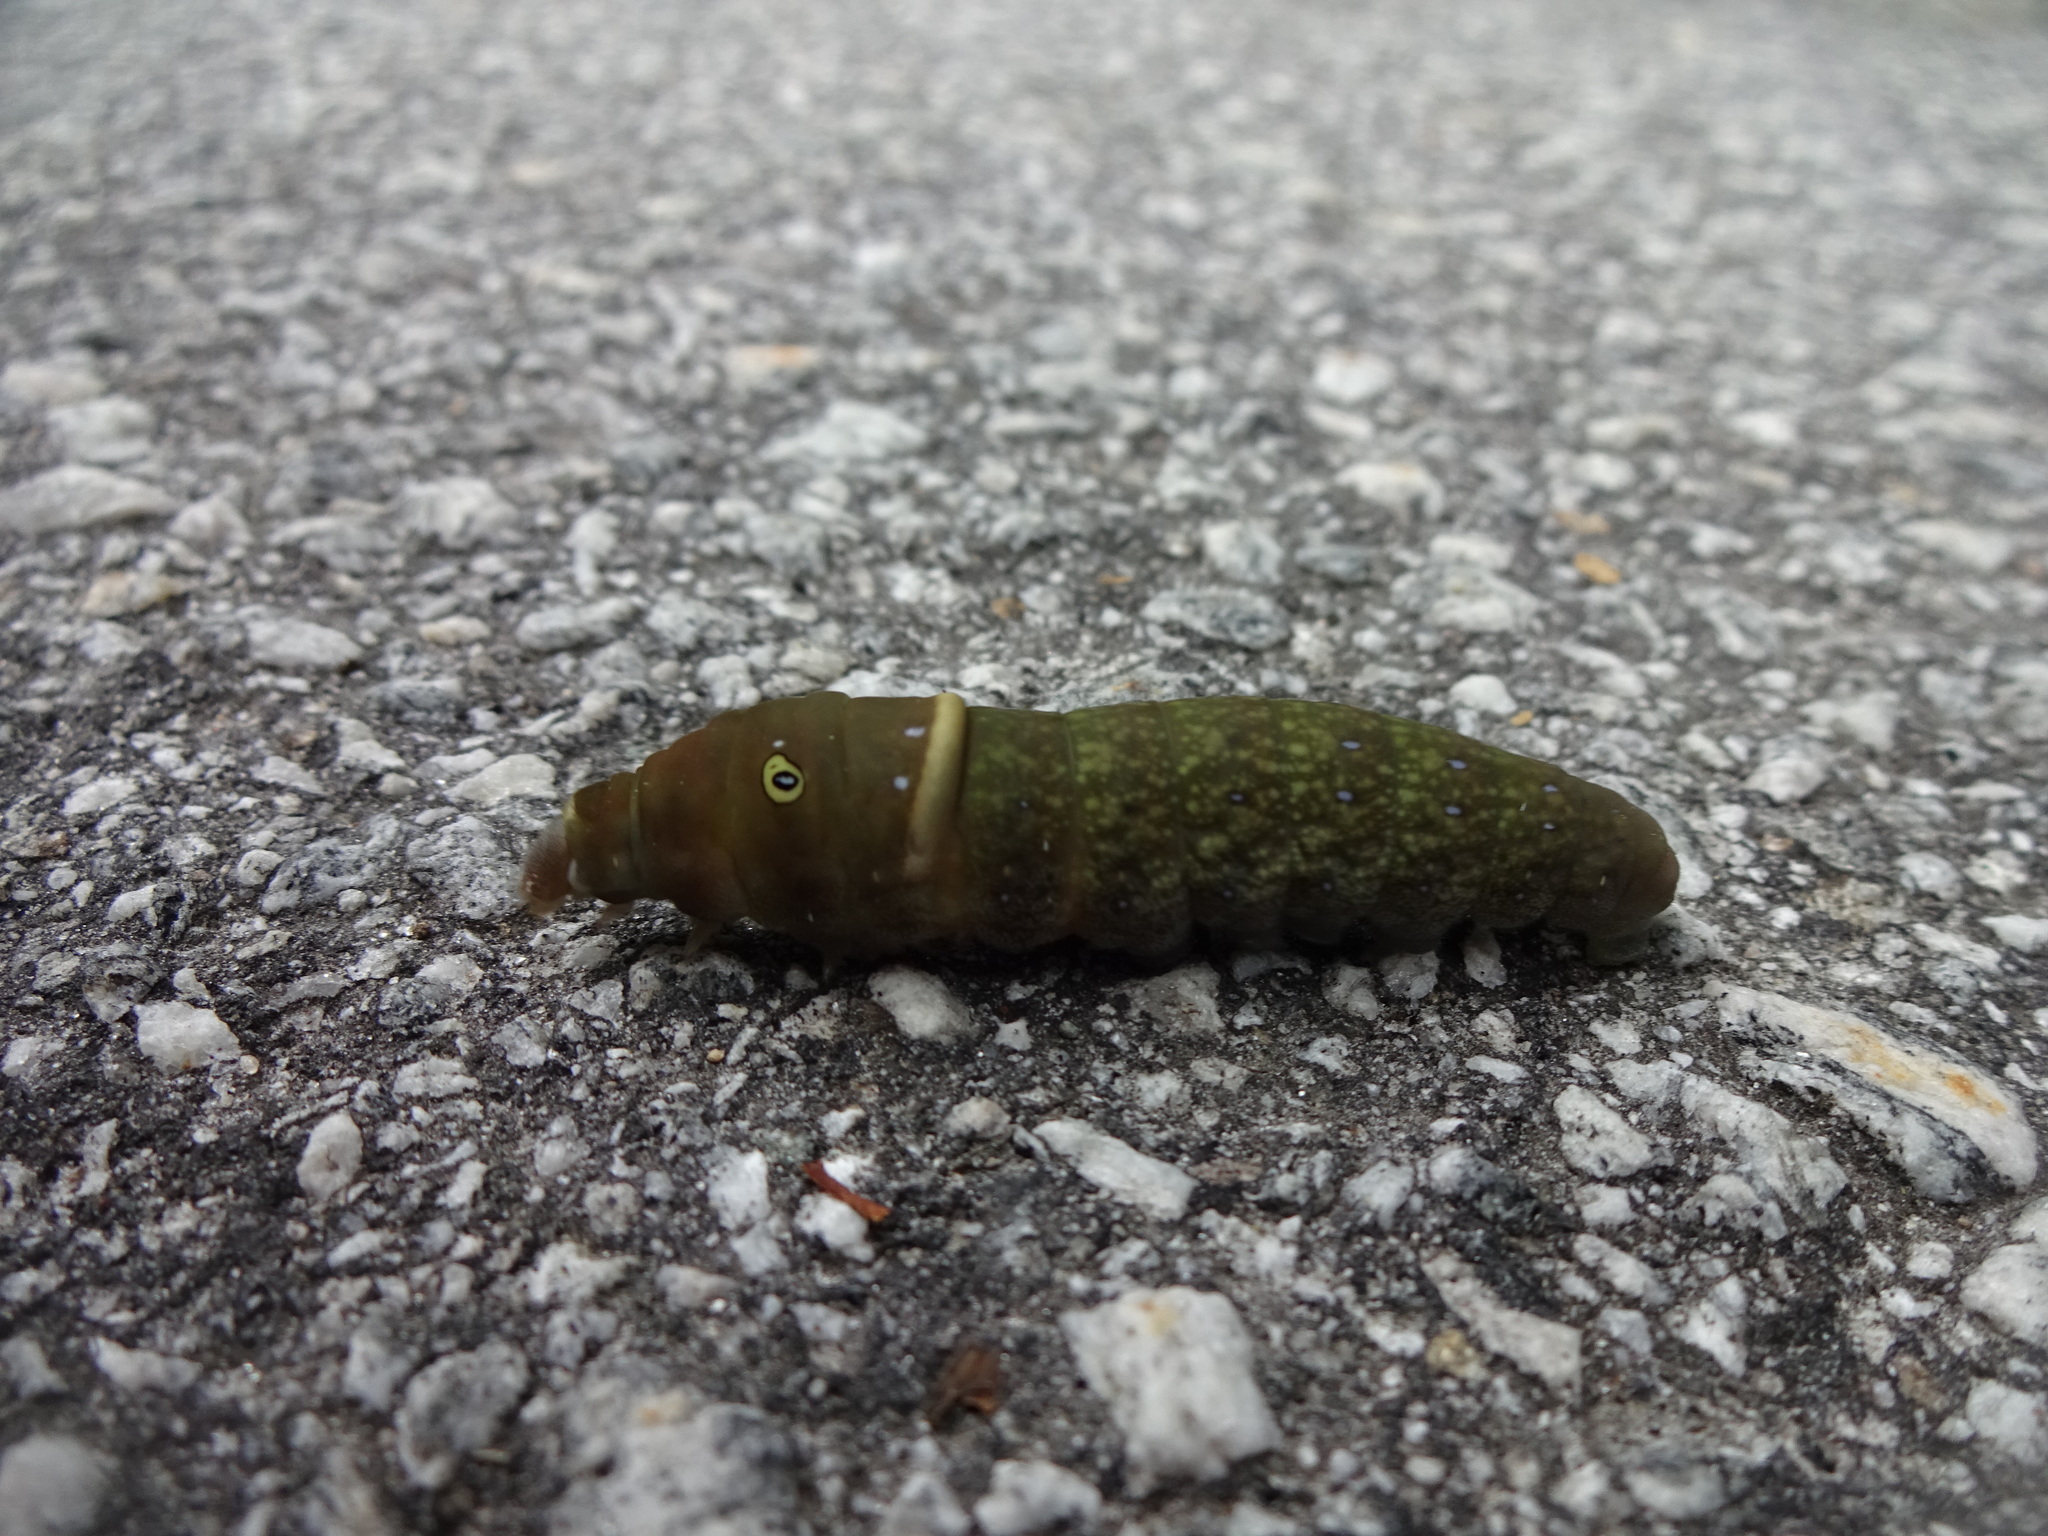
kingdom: Animalia
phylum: Arthropoda
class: Insecta
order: Lepidoptera
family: Papilionidae
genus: Papilio
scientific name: Papilio glaucus
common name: Tiger swallowtail
